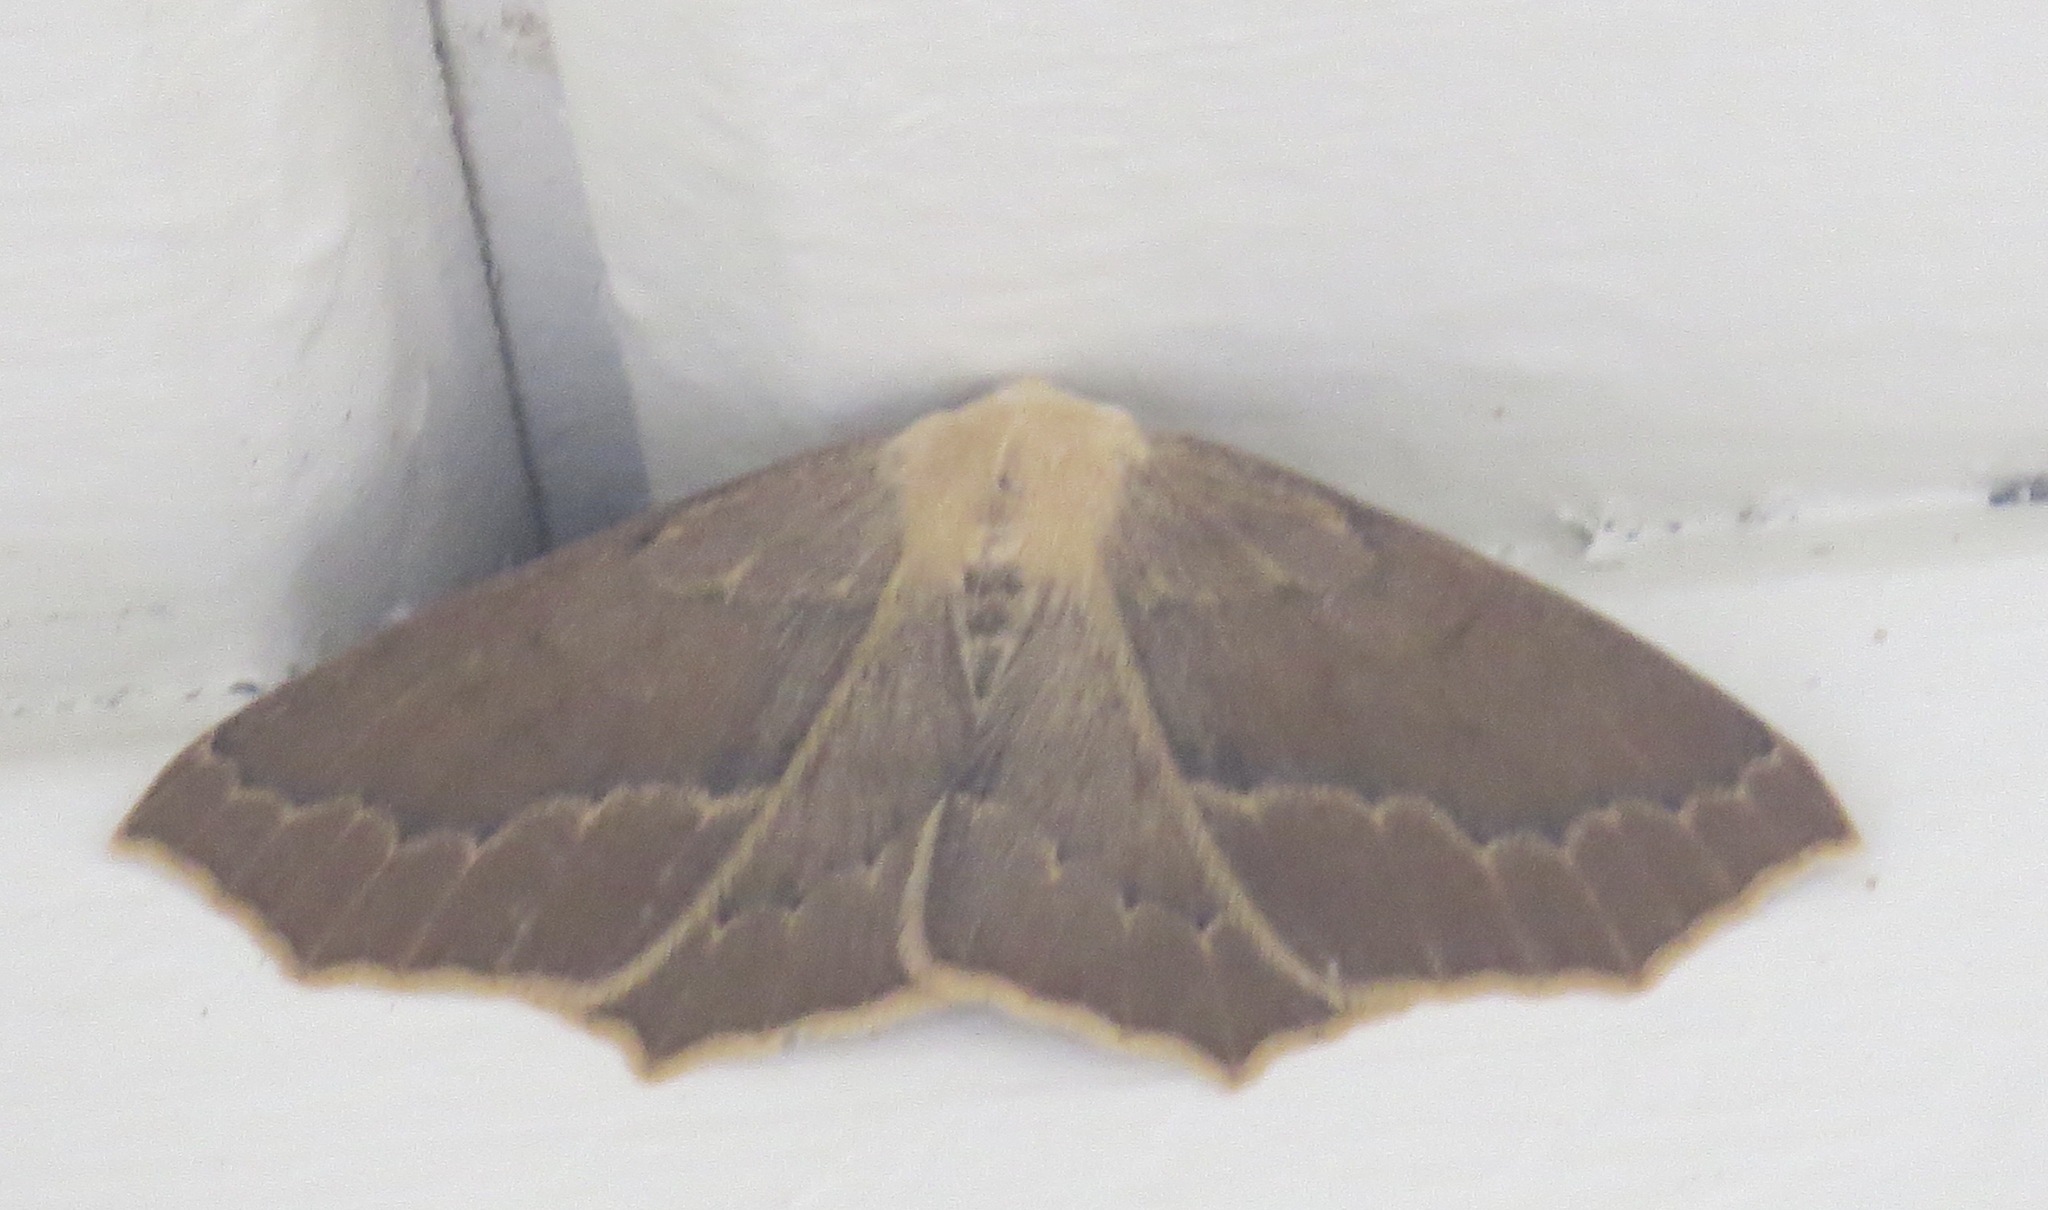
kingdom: Animalia
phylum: Arthropoda
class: Insecta
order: Lepidoptera
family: Geometridae
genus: Sabulodes
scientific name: Sabulodes aegrotata
